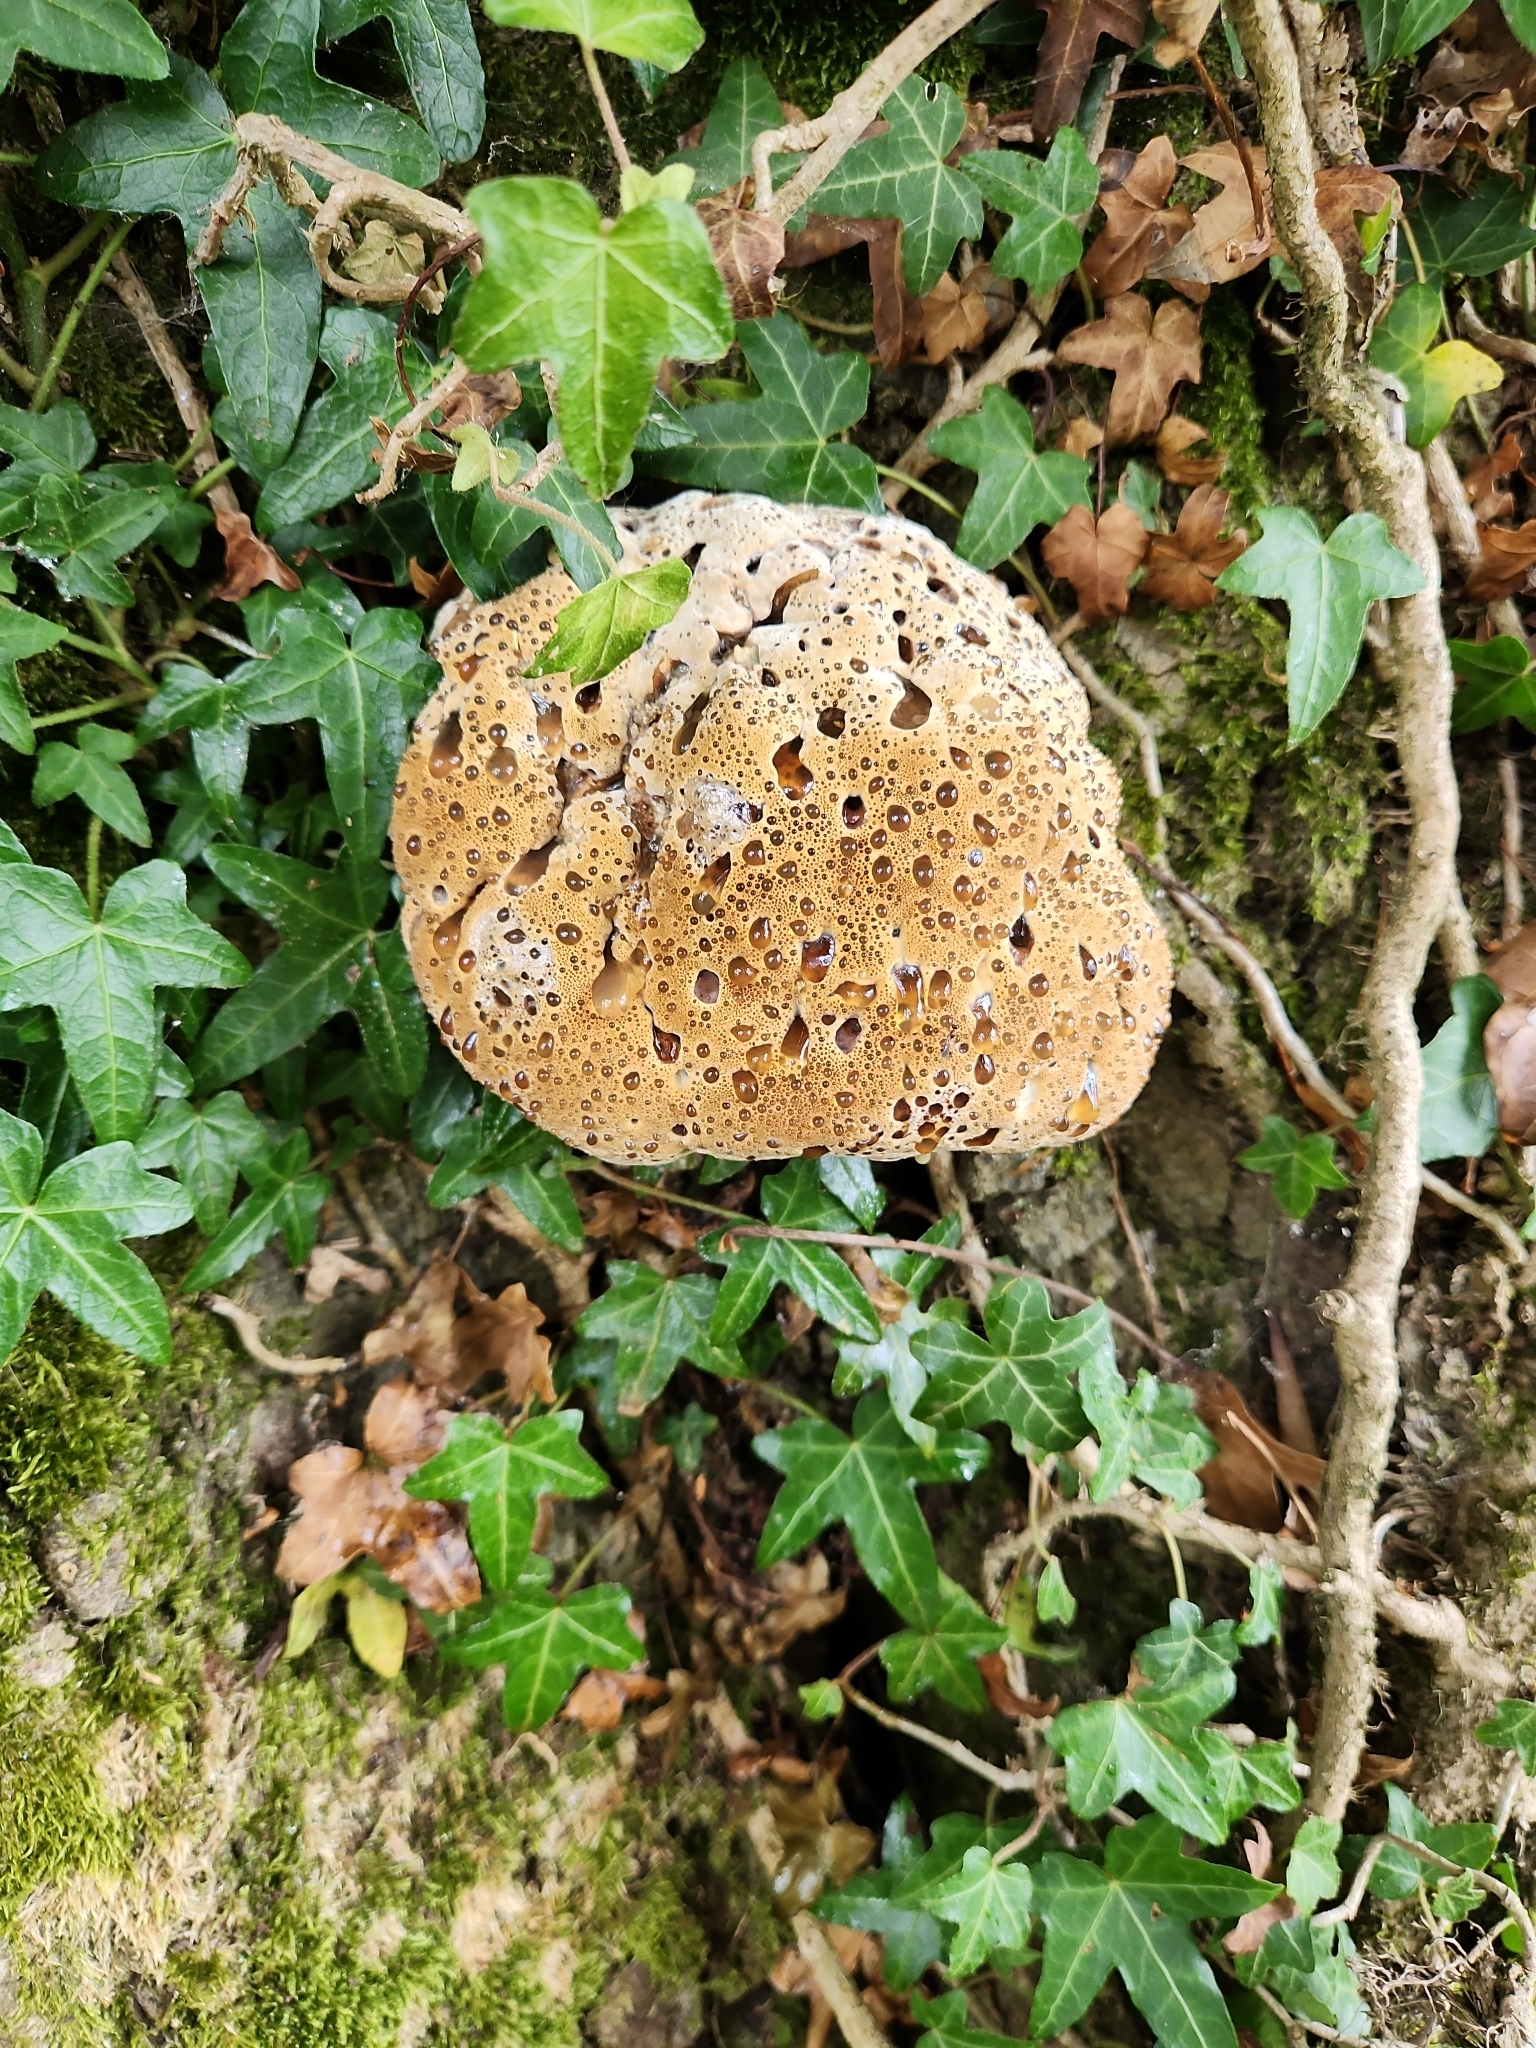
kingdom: Fungi
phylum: Basidiomycota
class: Agaricomycetes
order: Hymenochaetales
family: Hymenochaetaceae
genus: Pseudoinonotus
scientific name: Pseudoinonotus dryadeus
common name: Oak bracket
